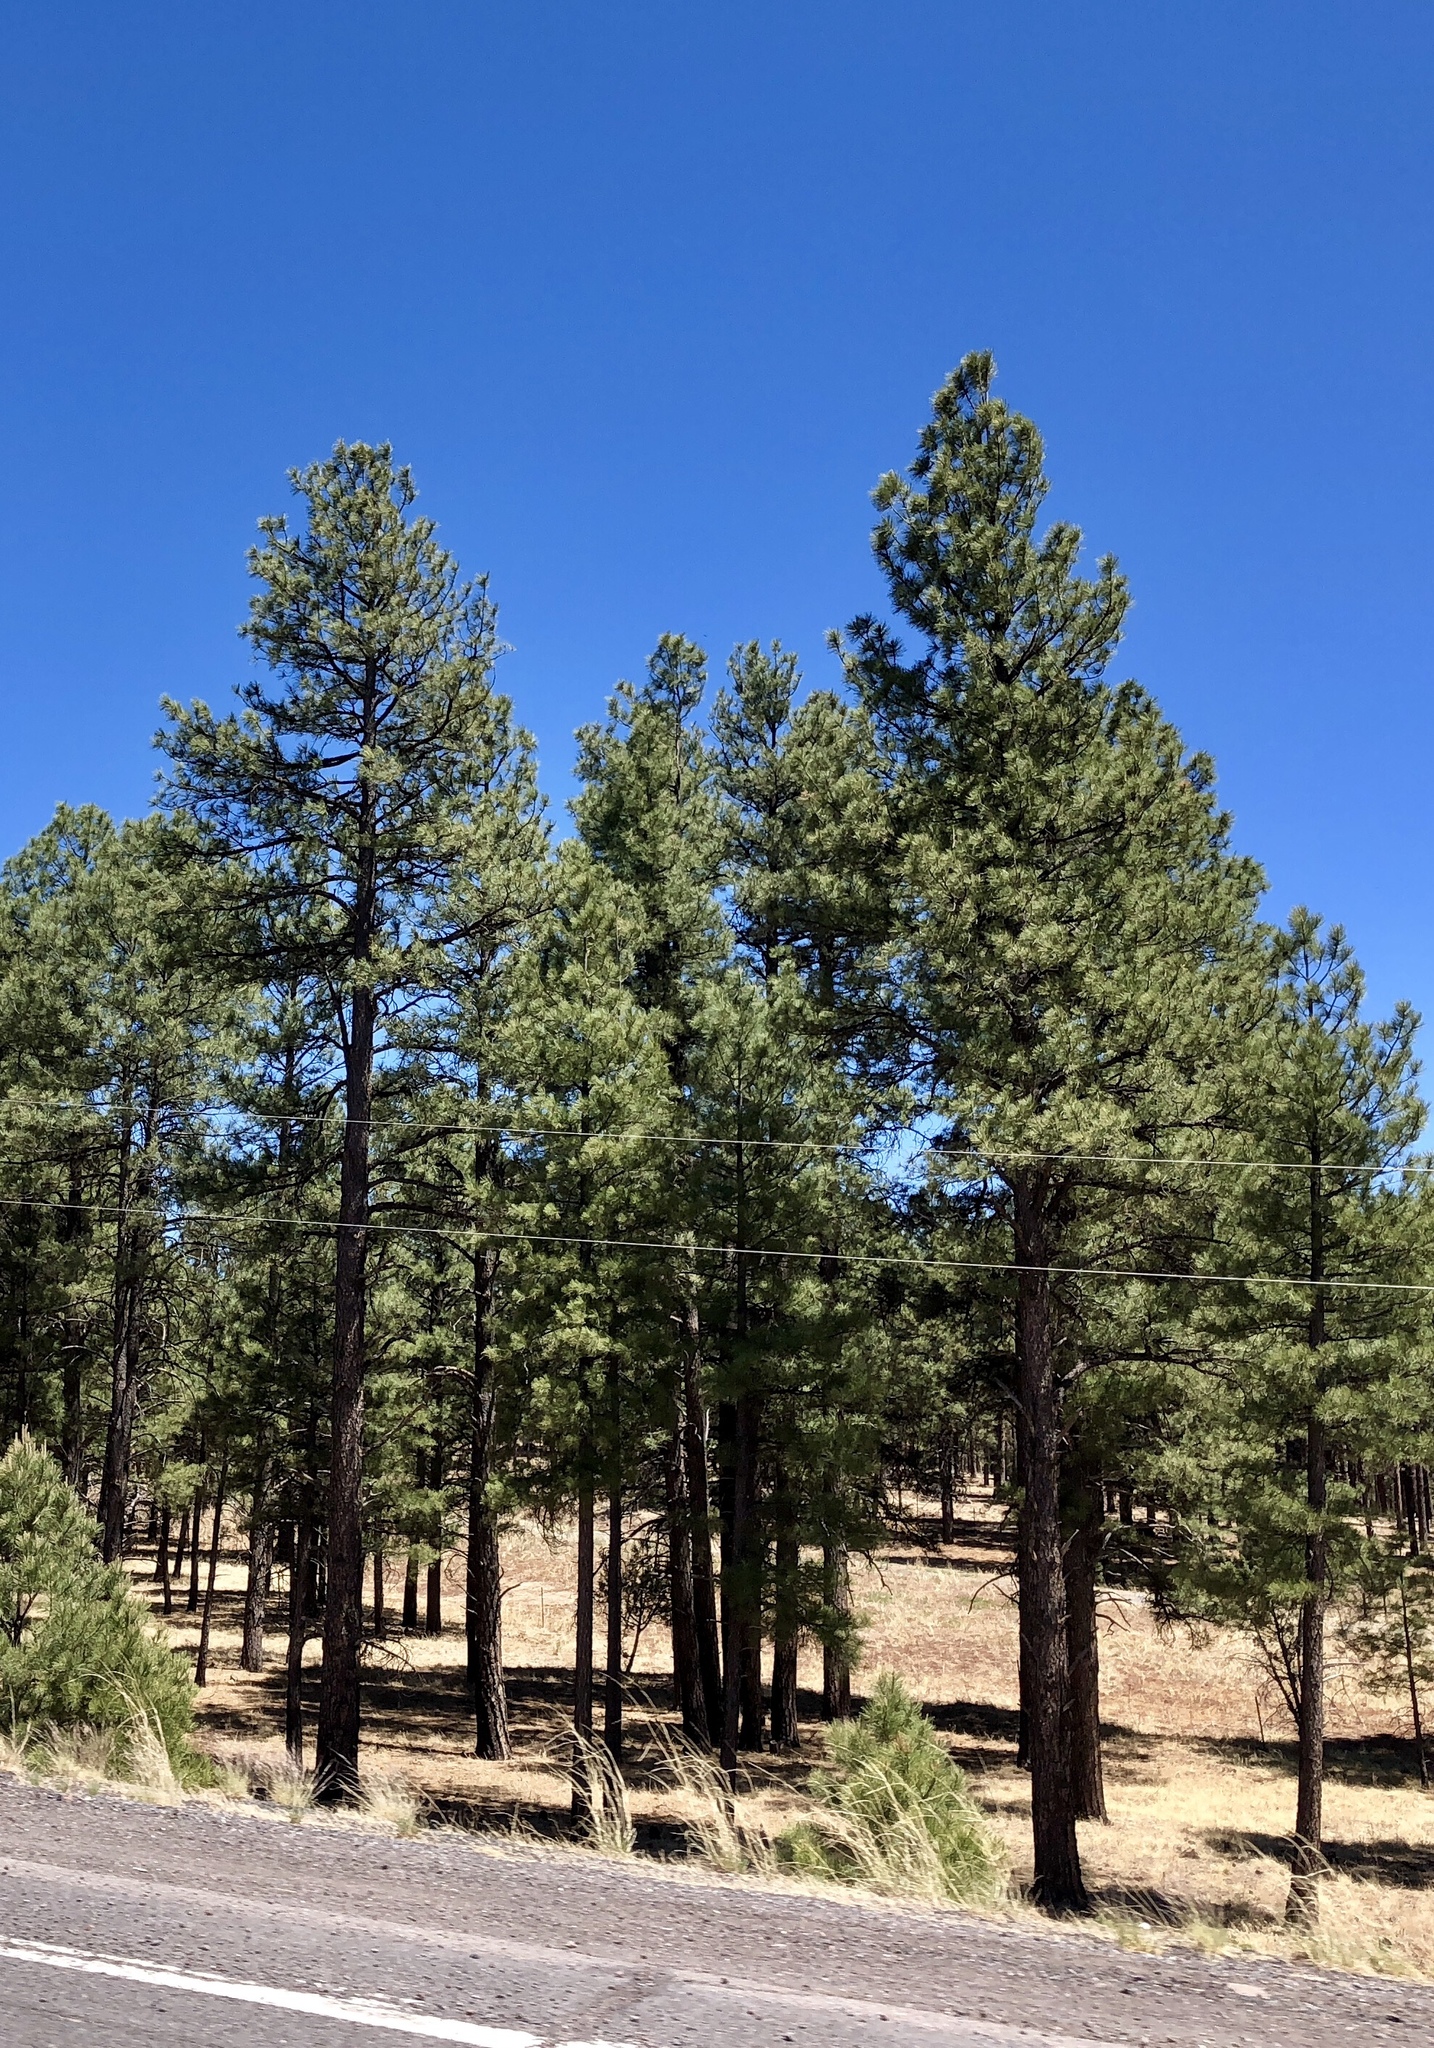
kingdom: Plantae
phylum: Tracheophyta
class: Pinopsida
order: Pinales
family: Pinaceae
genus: Pinus
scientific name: Pinus ponderosa
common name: Western yellow-pine
